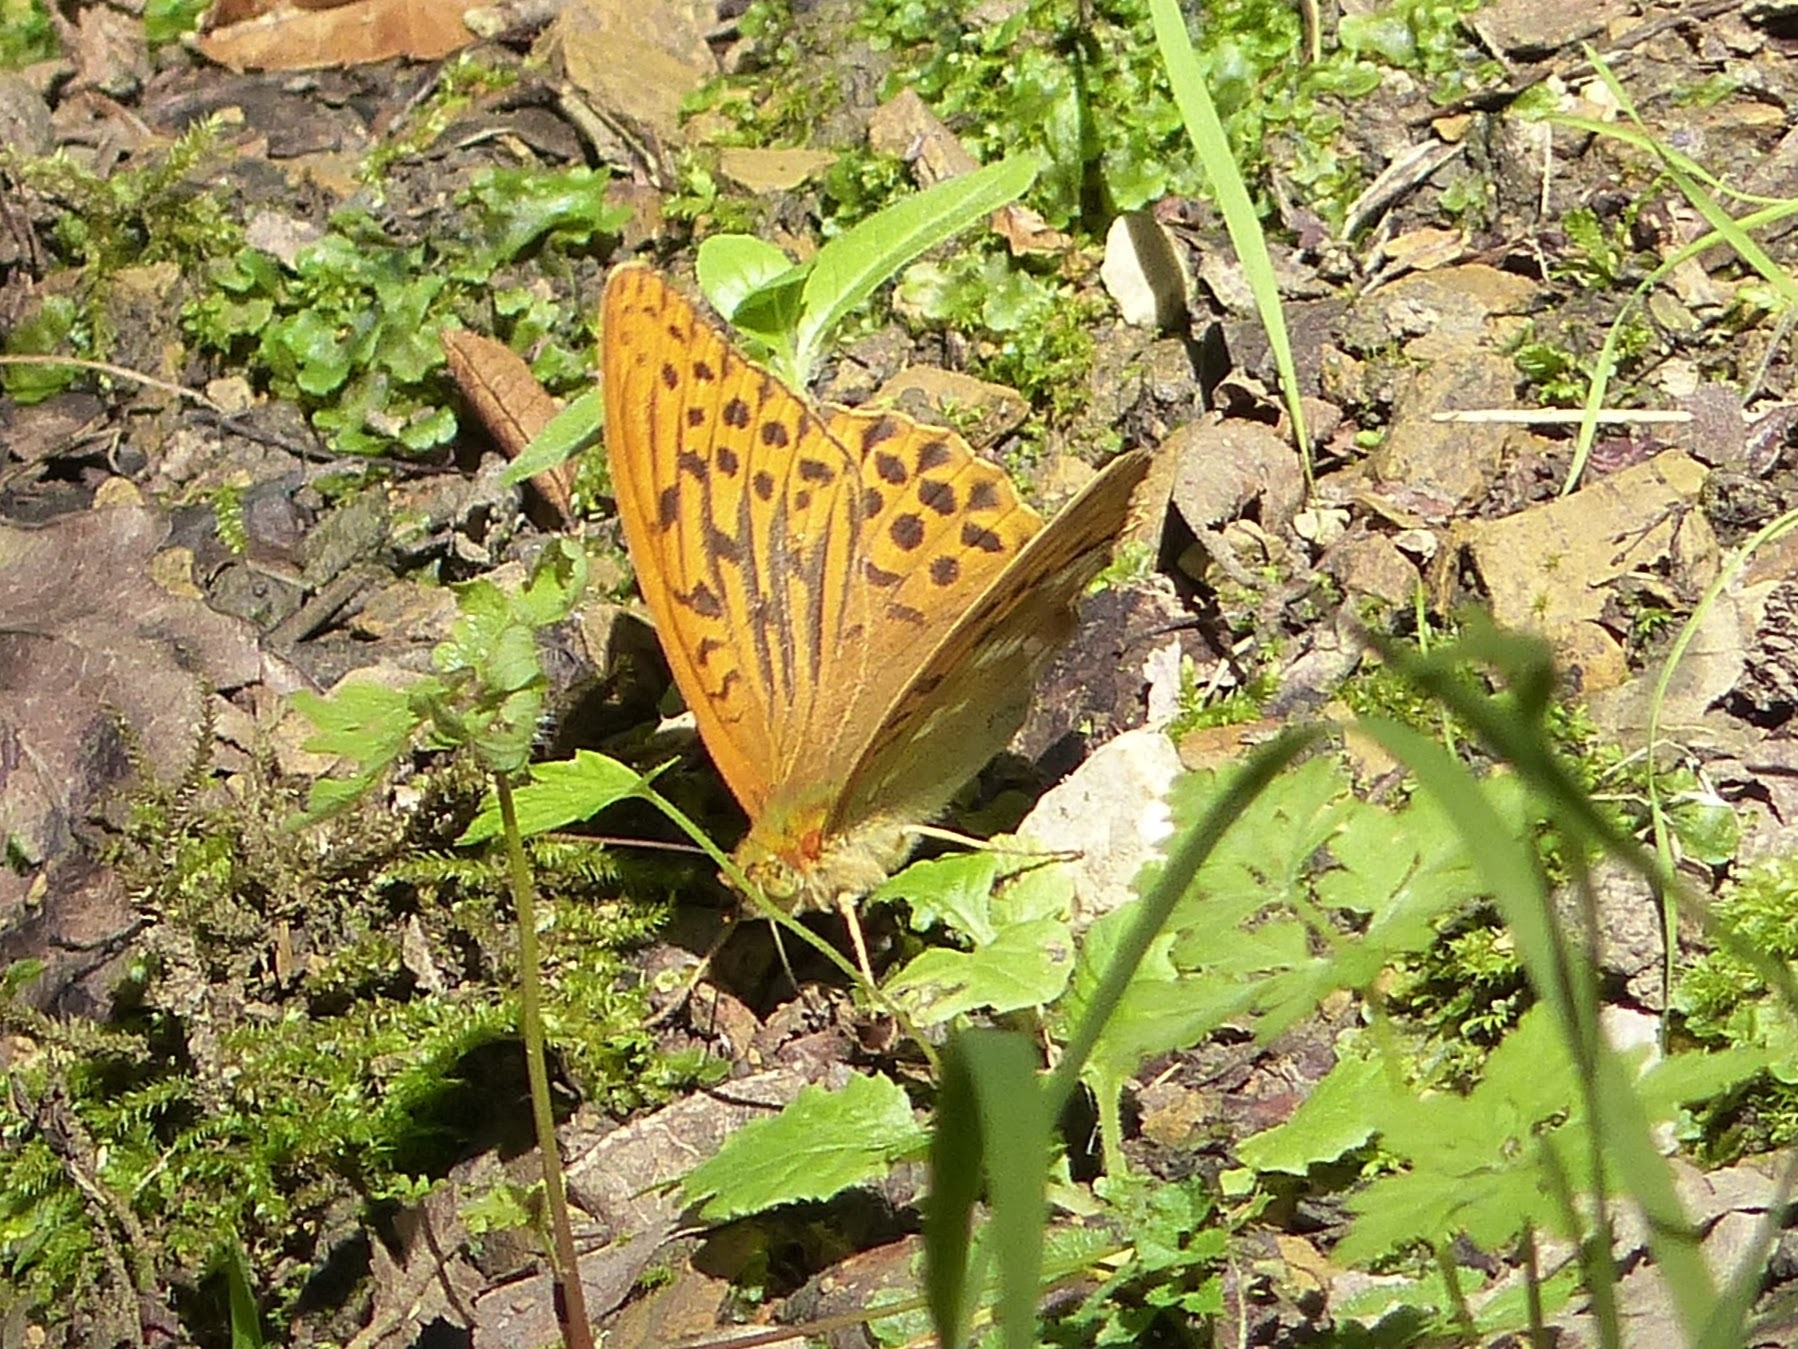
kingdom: Animalia
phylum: Arthropoda
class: Insecta
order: Lepidoptera
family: Nymphalidae
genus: Argynnis
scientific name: Argynnis paphia
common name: Silver-washed fritillary
